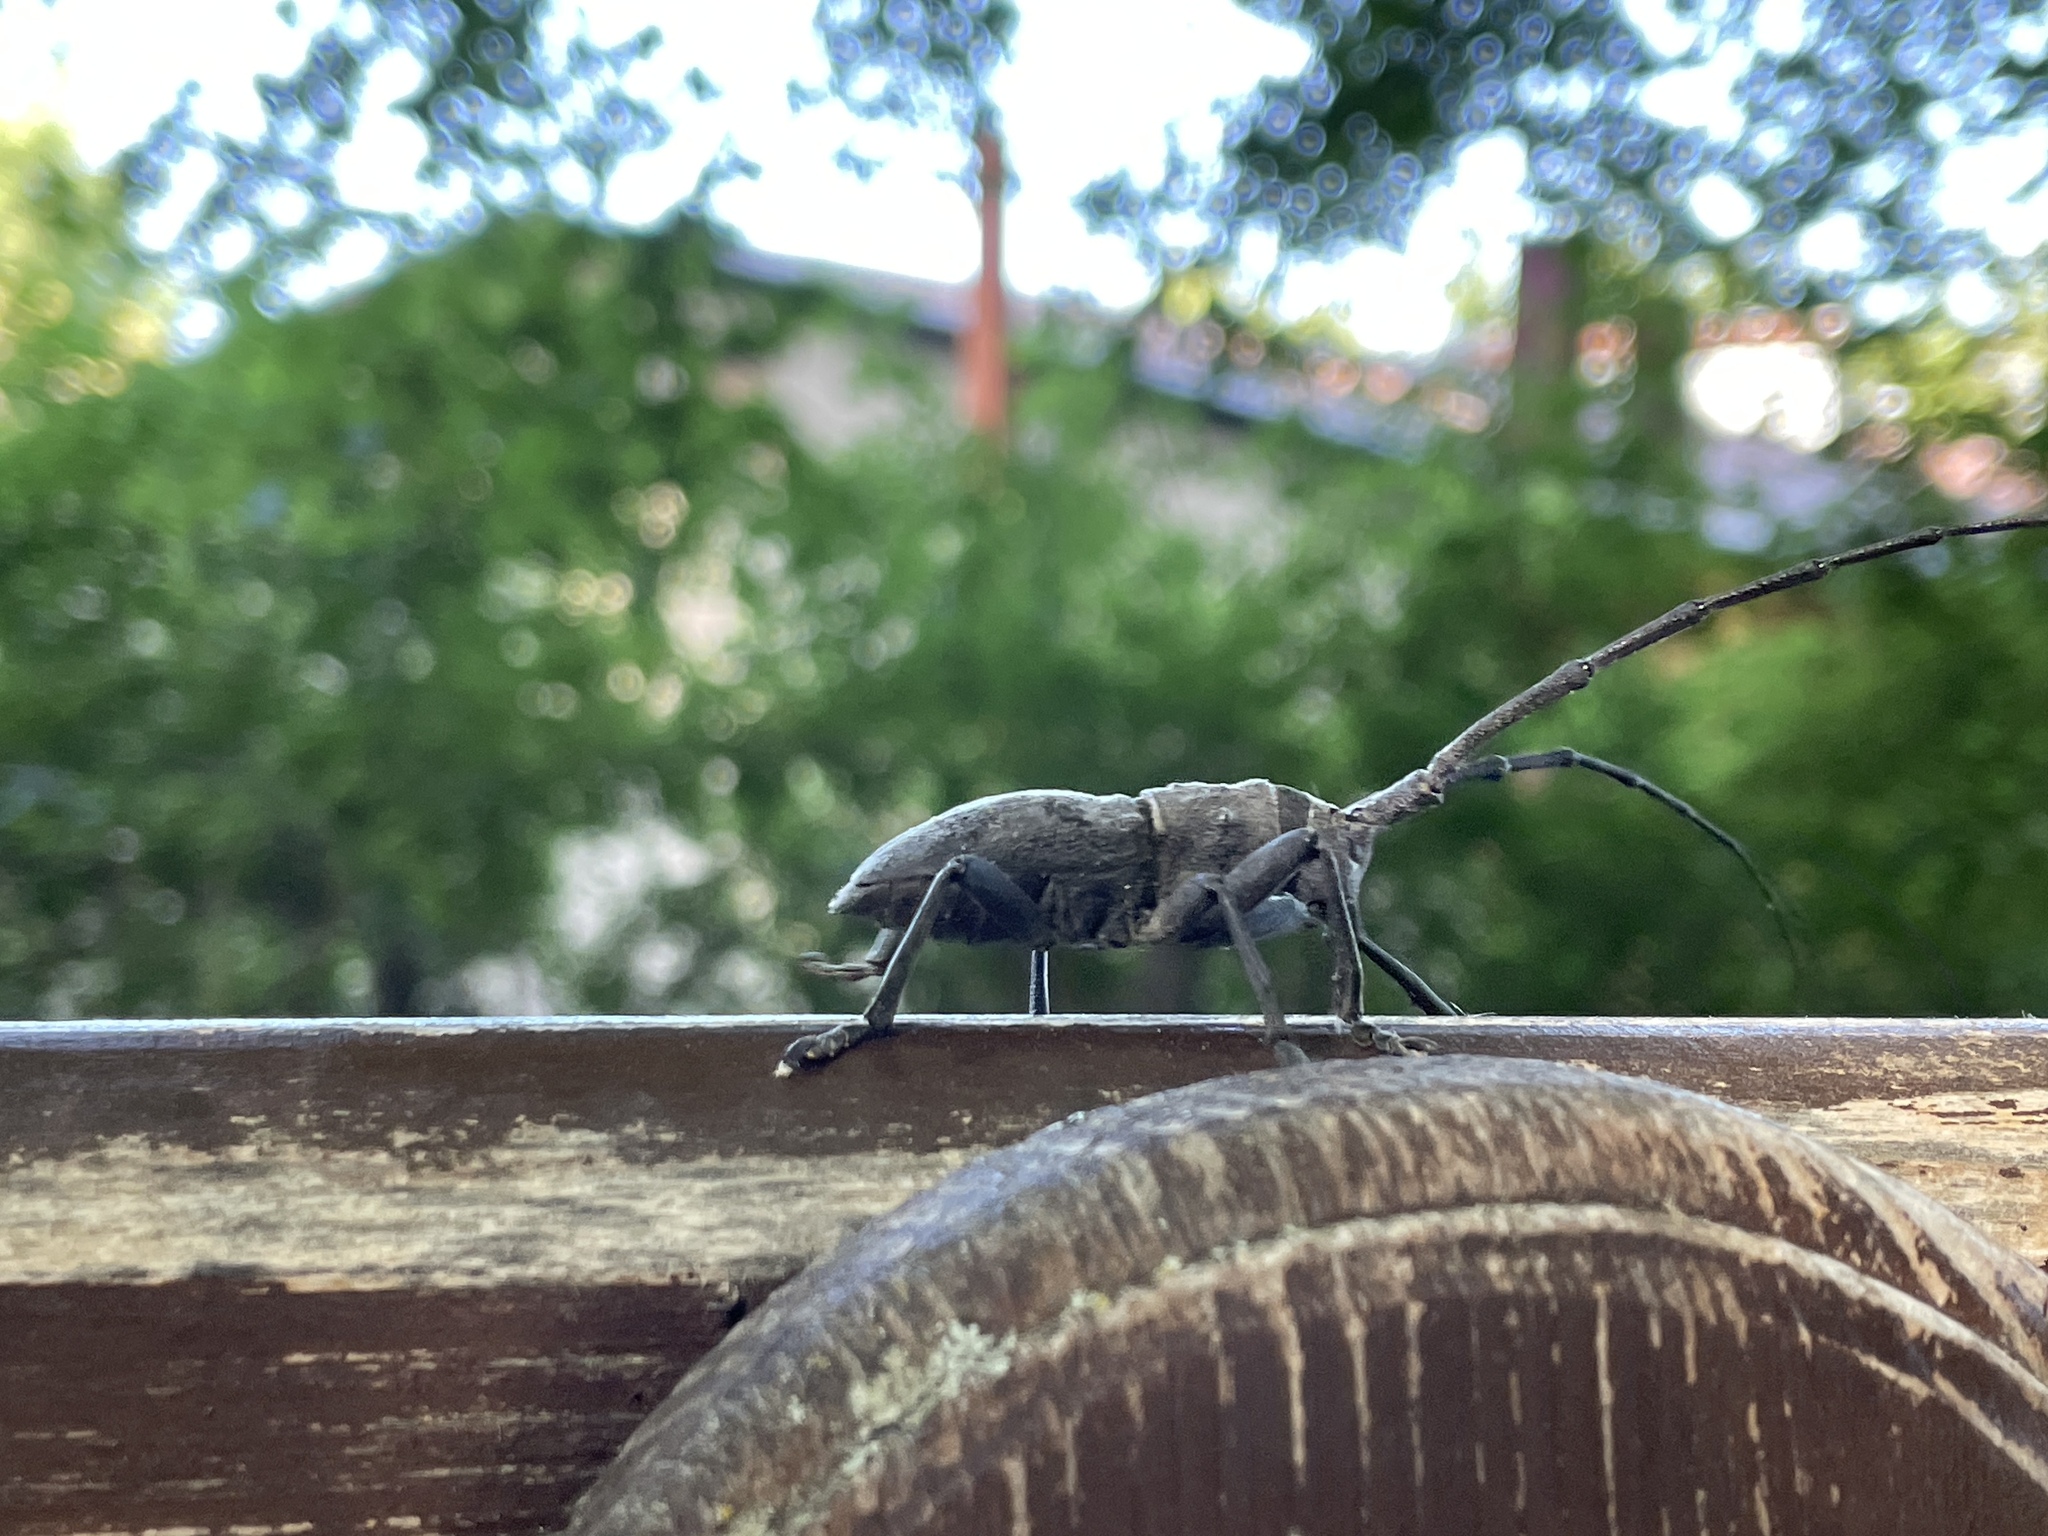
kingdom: Animalia
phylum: Arthropoda
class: Insecta
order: Coleoptera
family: Cerambycidae
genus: Morimus
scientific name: Morimus asper
